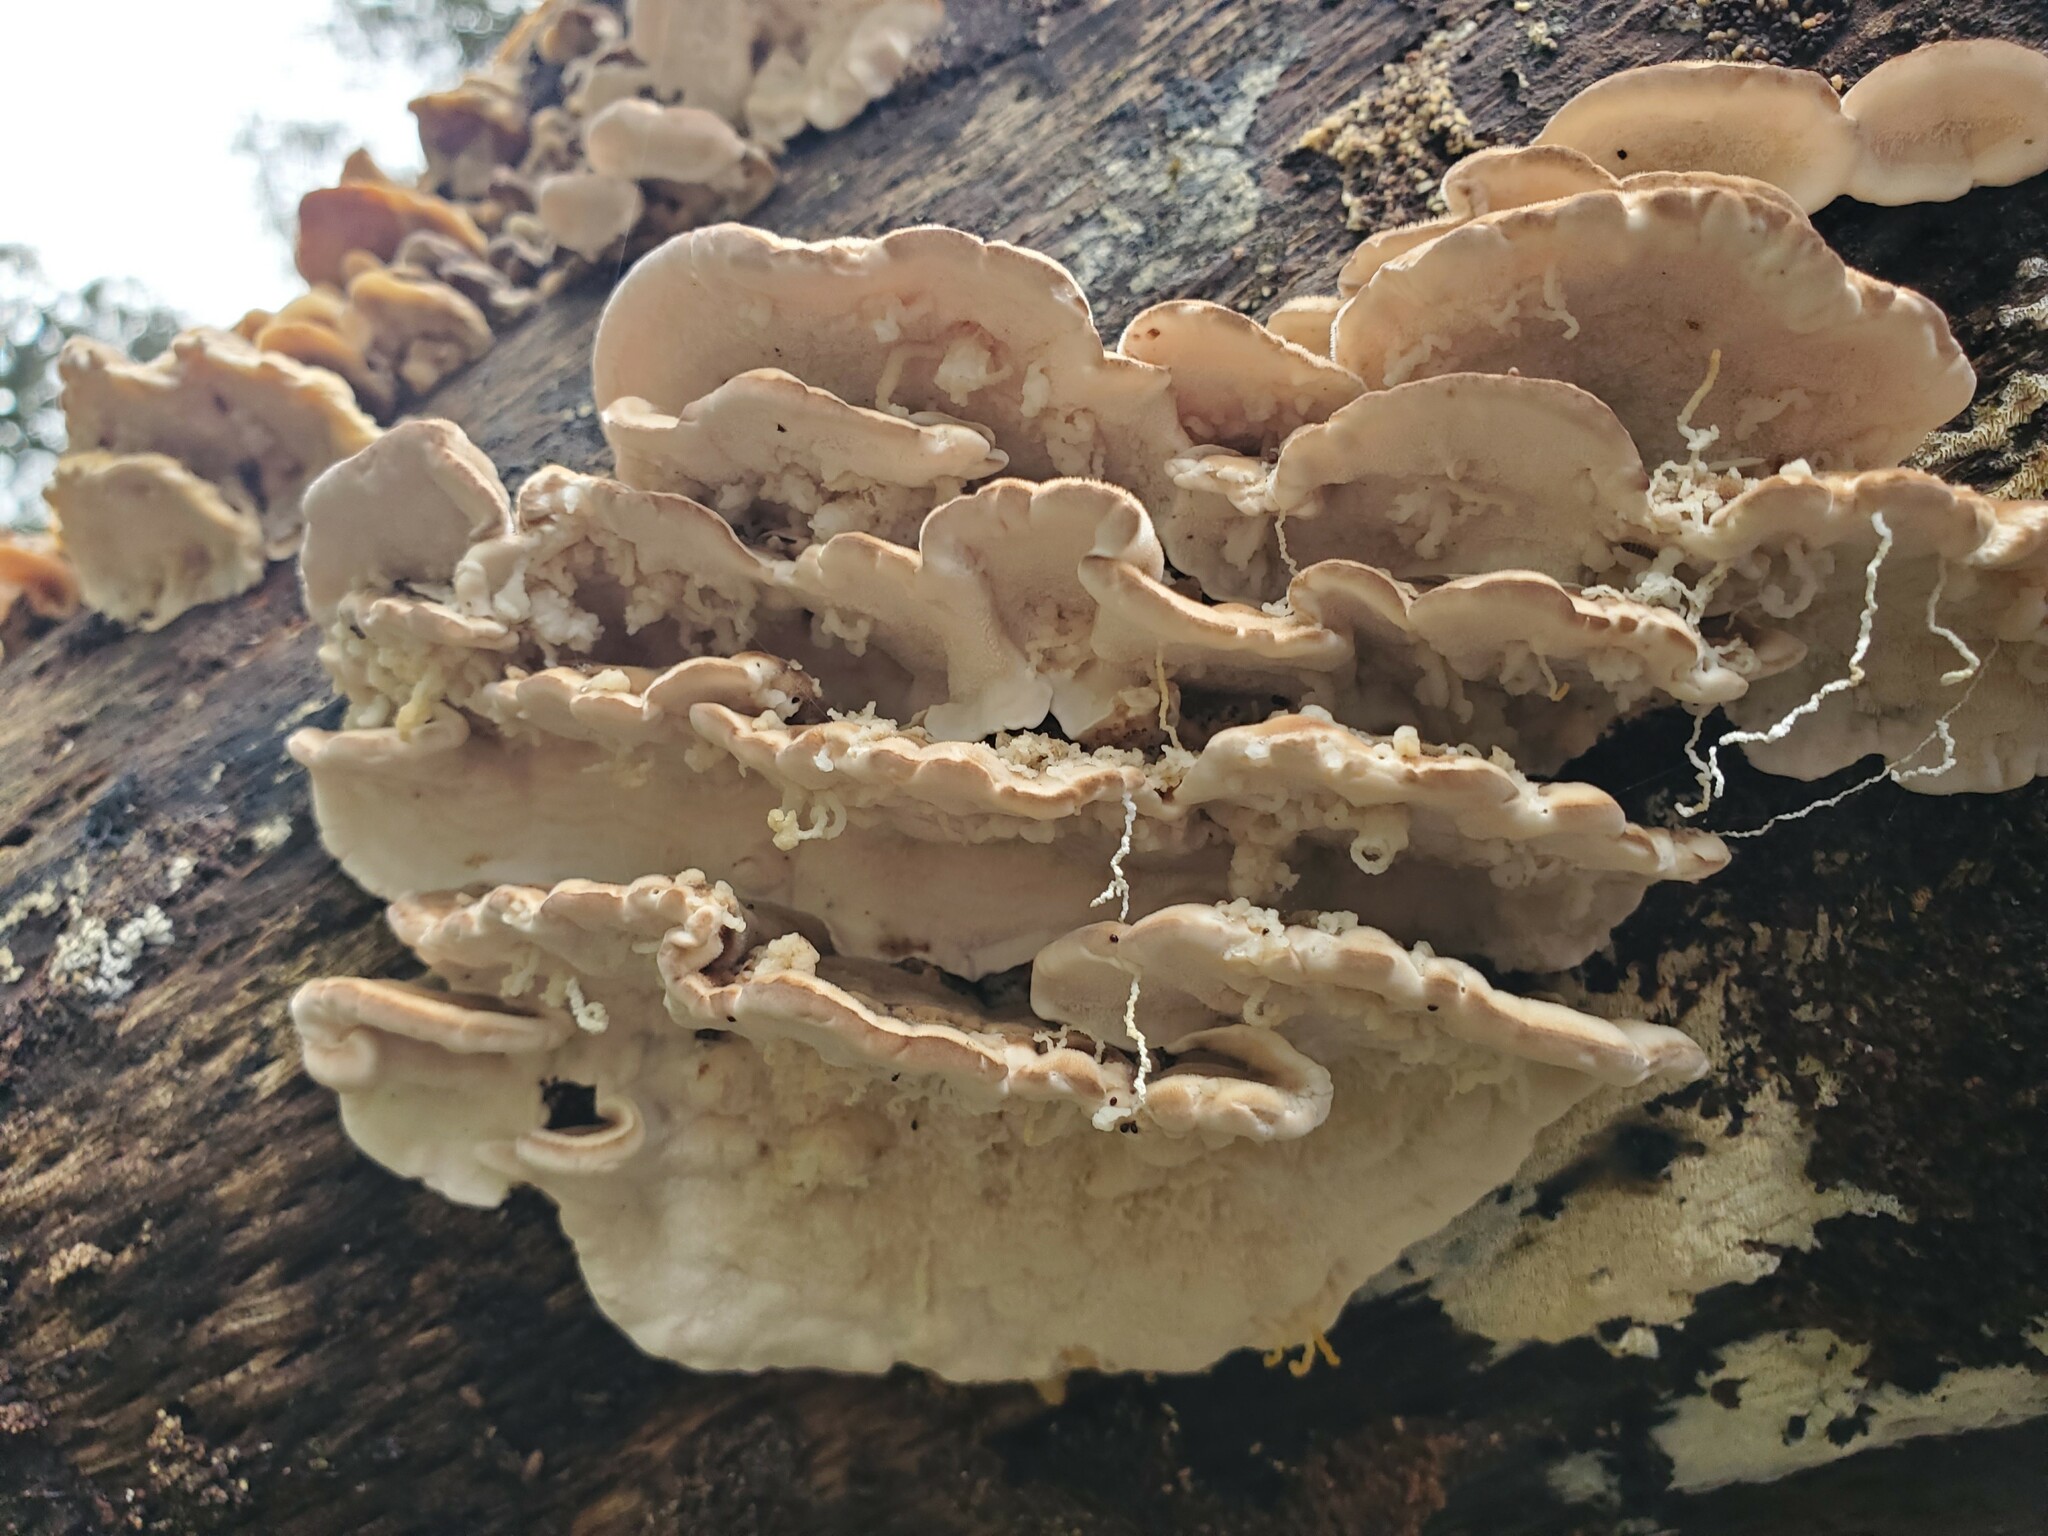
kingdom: Fungi
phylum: Basidiomycota
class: Agaricomycetes
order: Polyporales
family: Polyporaceae
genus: Trametes
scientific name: Trametes versicolor
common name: Turkeytail
